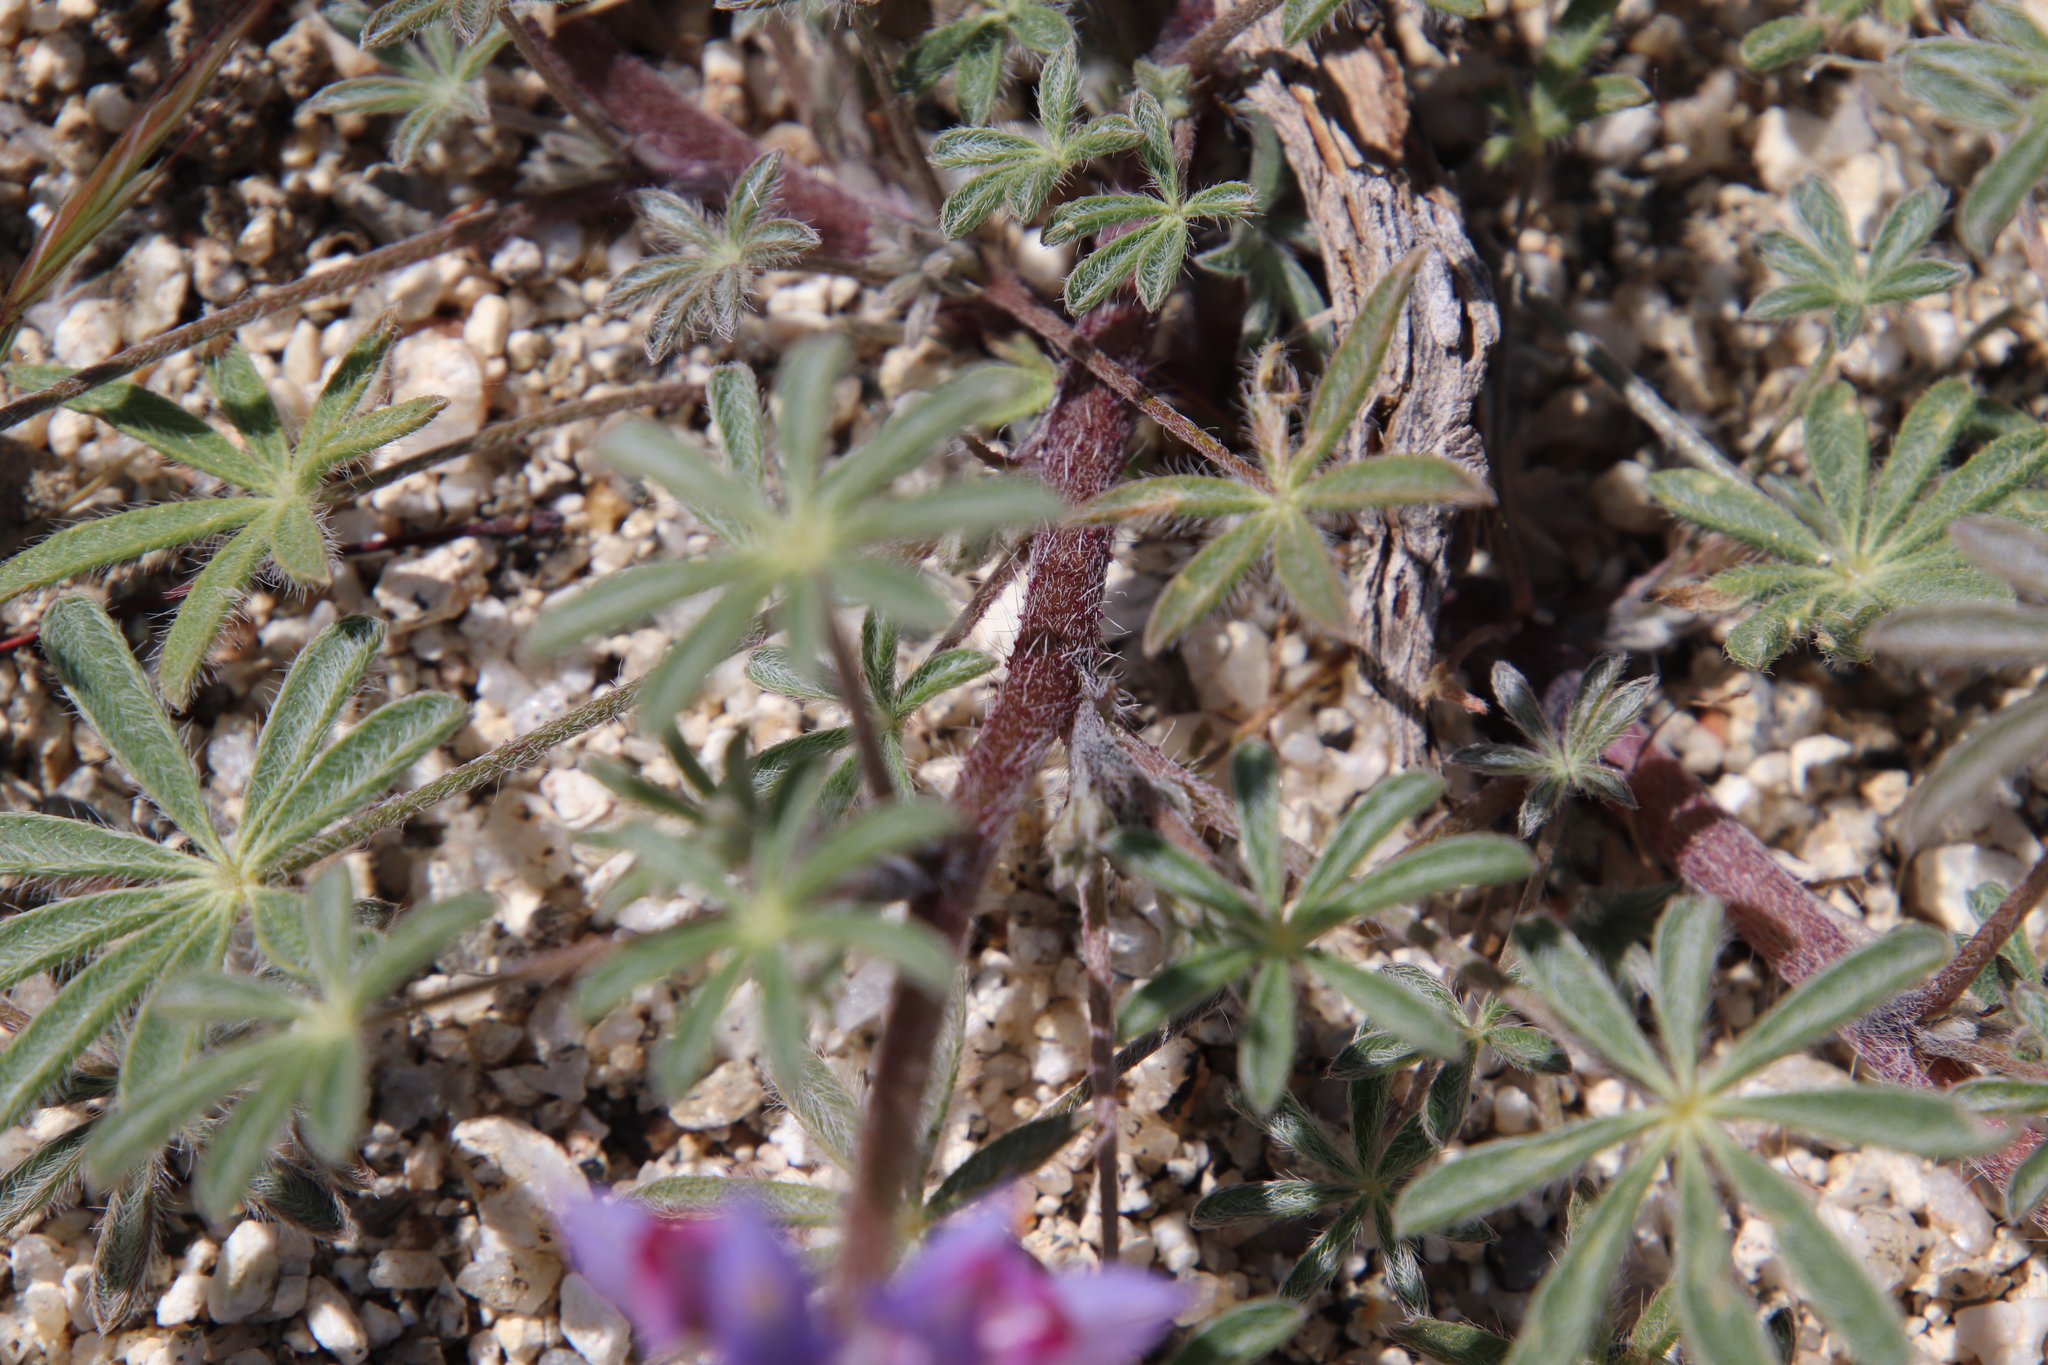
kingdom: Plantae
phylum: Tracheophyta
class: Magnoliopsida
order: Fabales
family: Fabaceae
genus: Lupinus
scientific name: Lupinus sparsiflorus
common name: Coulter's lupine
